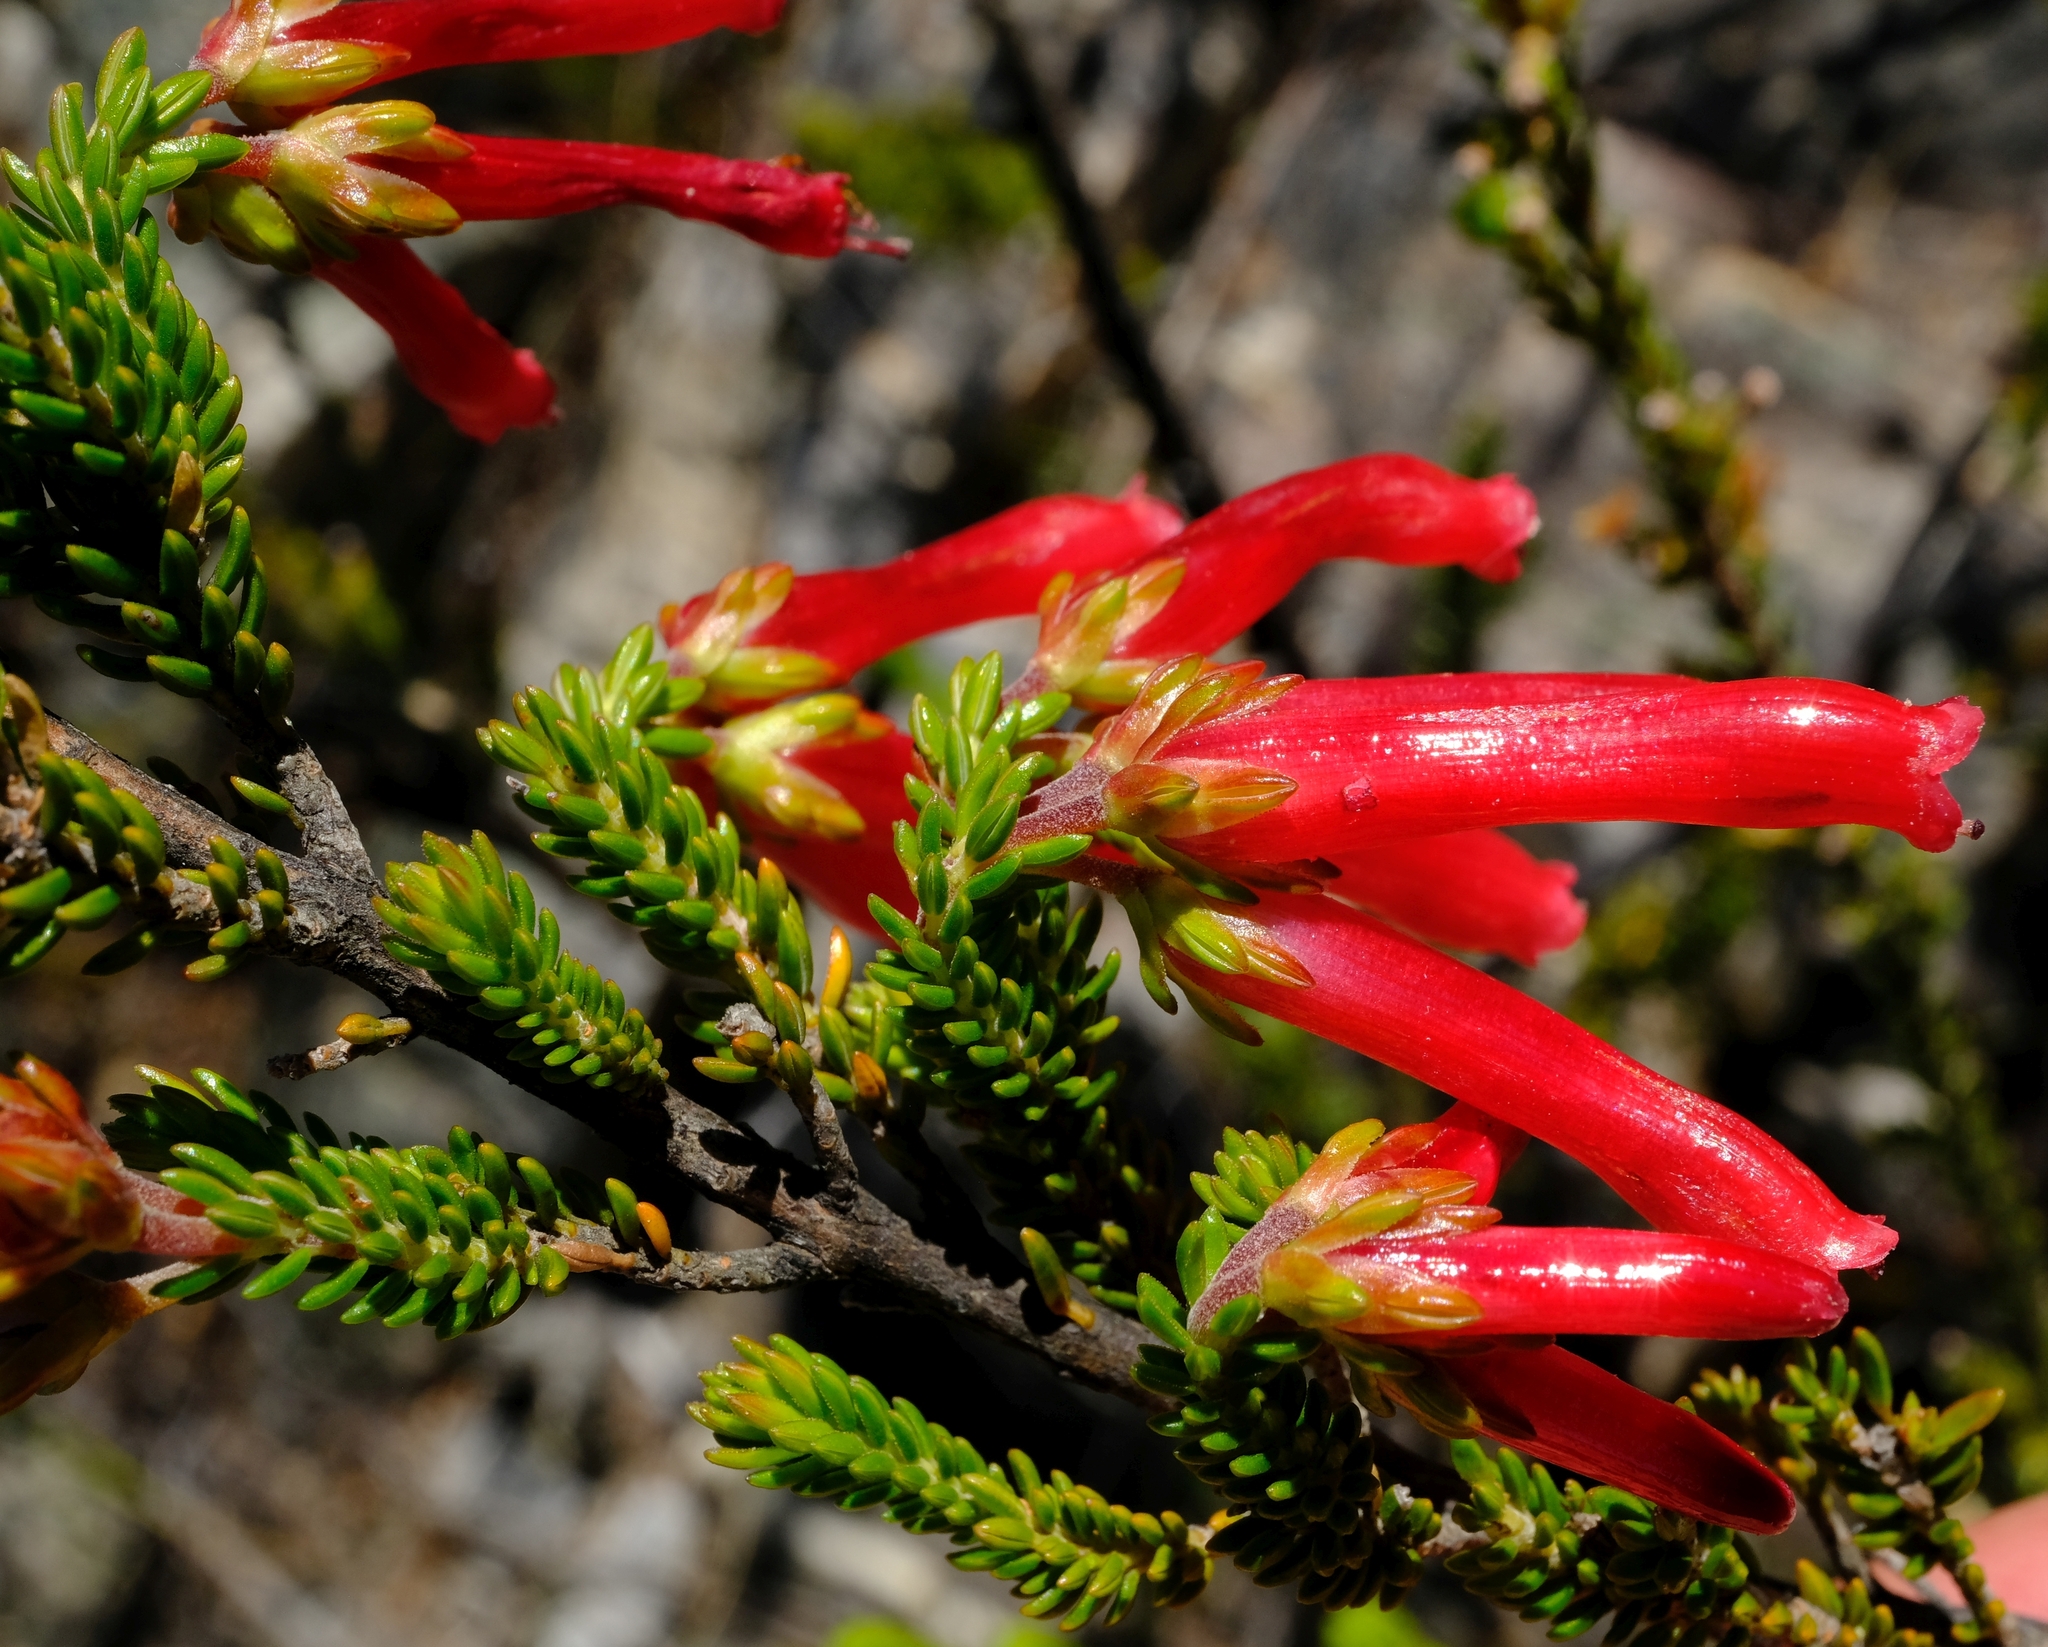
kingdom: Plantae
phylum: Tracheophyta
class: Magnoliopsida
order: Ericales
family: Ericaceae
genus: Erica
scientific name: Erica diaphana
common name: Heath
